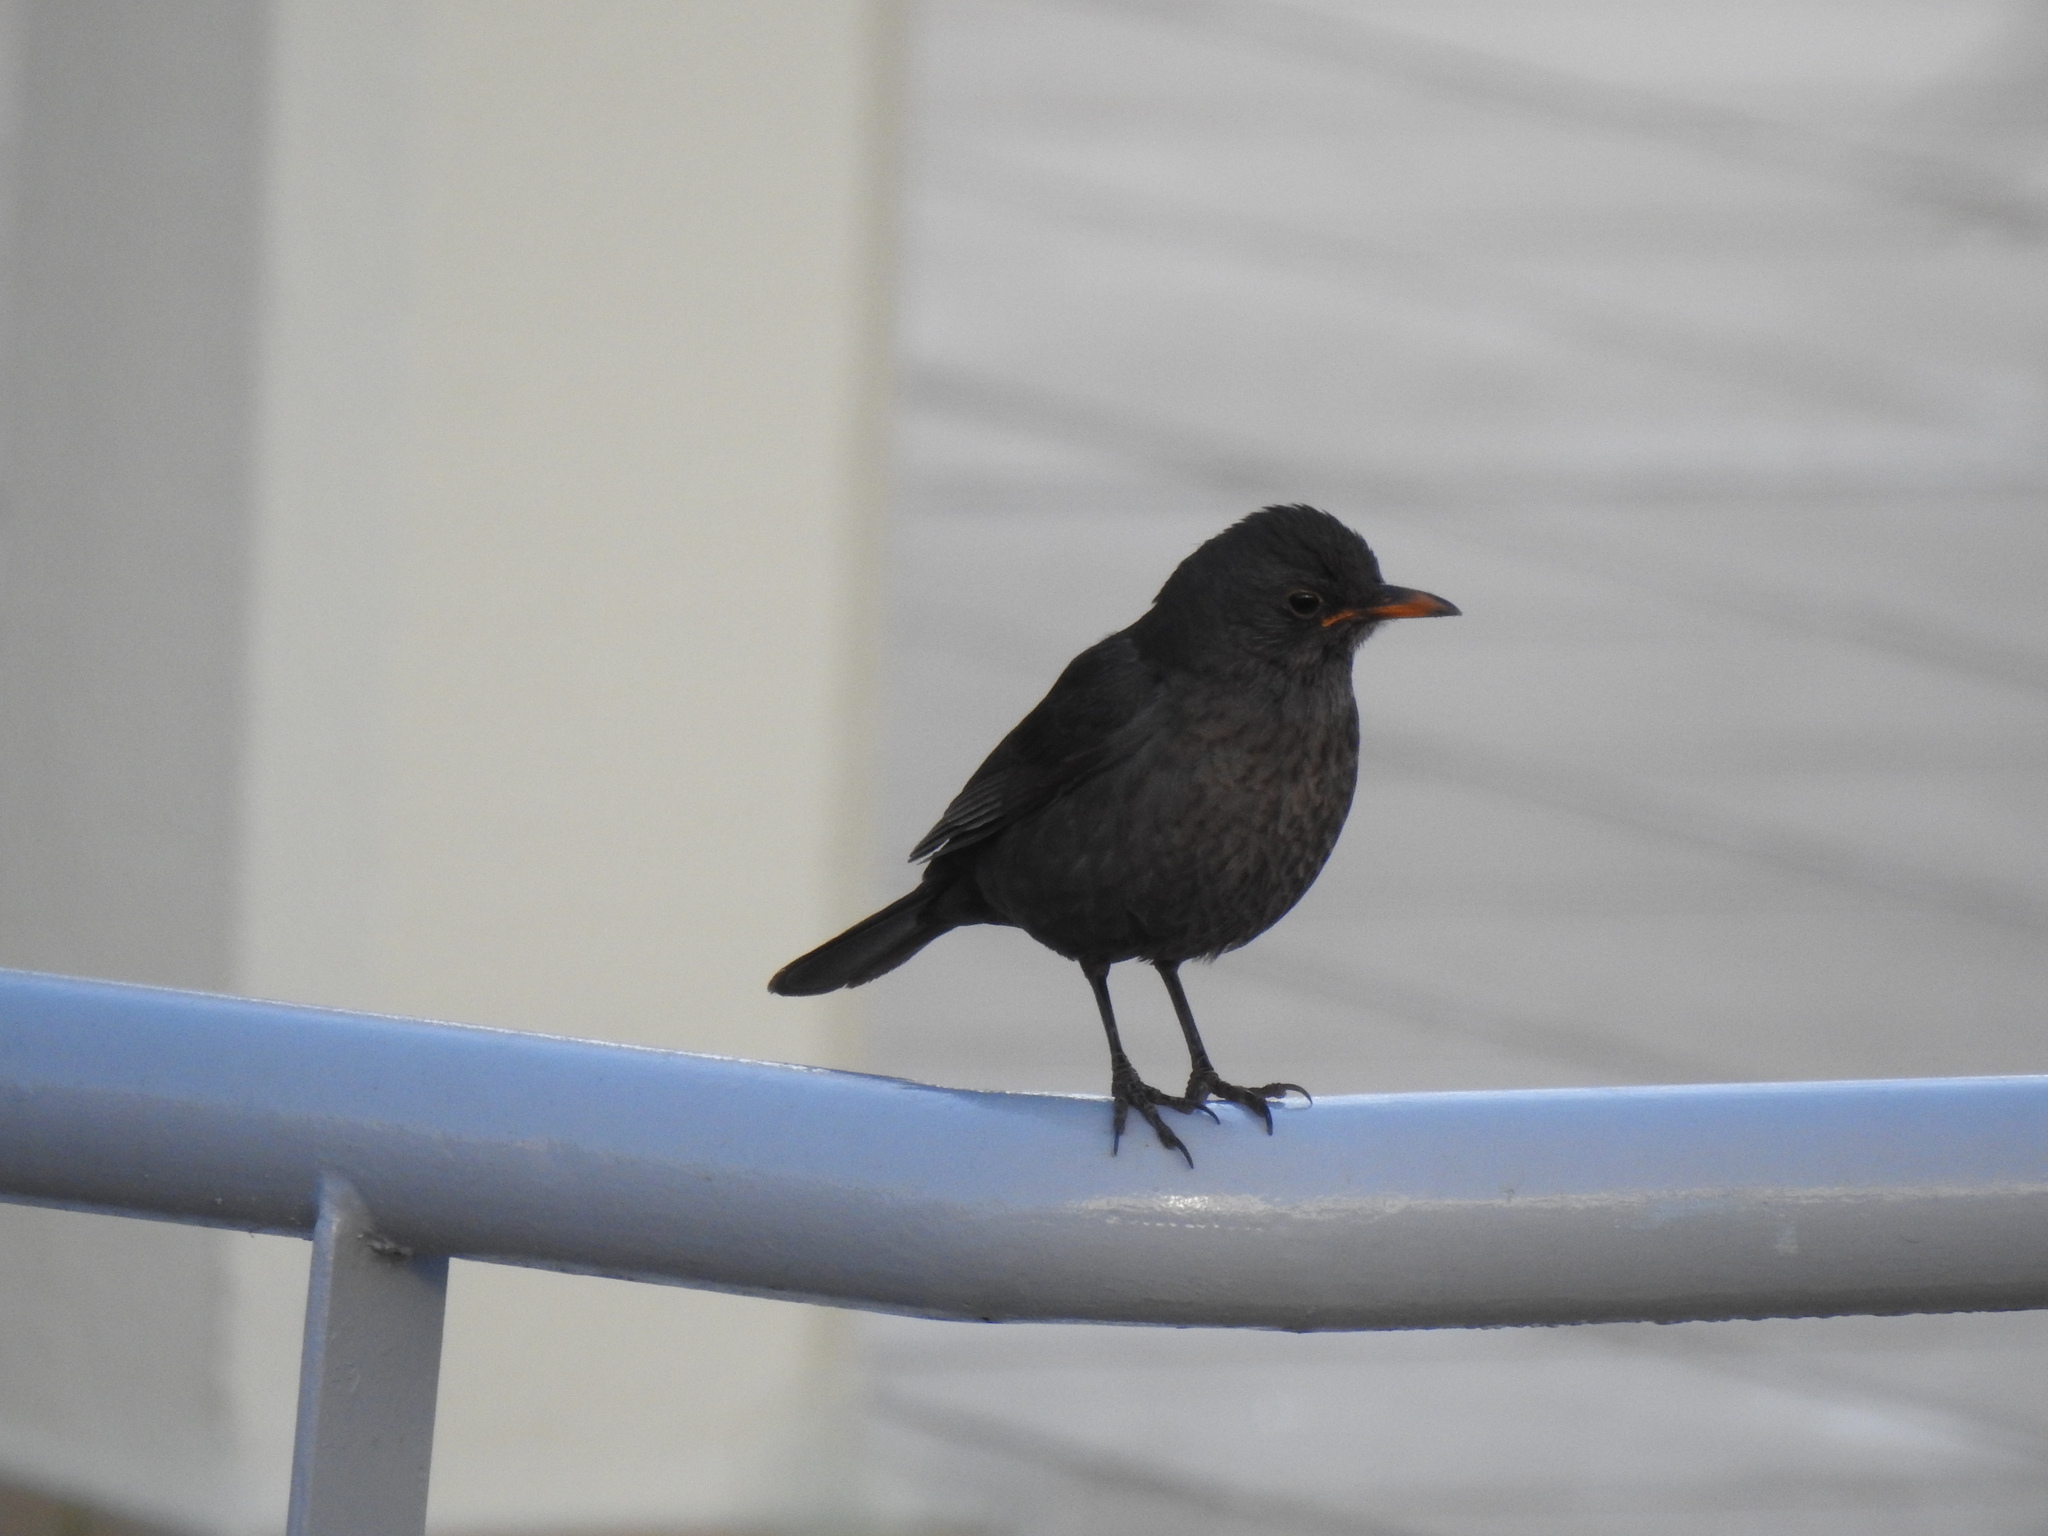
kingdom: Animalia
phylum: Chordata
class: Aves
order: Passeriformes
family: Turdidae
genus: Turdus
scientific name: Turdus merula
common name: Common blackbird
